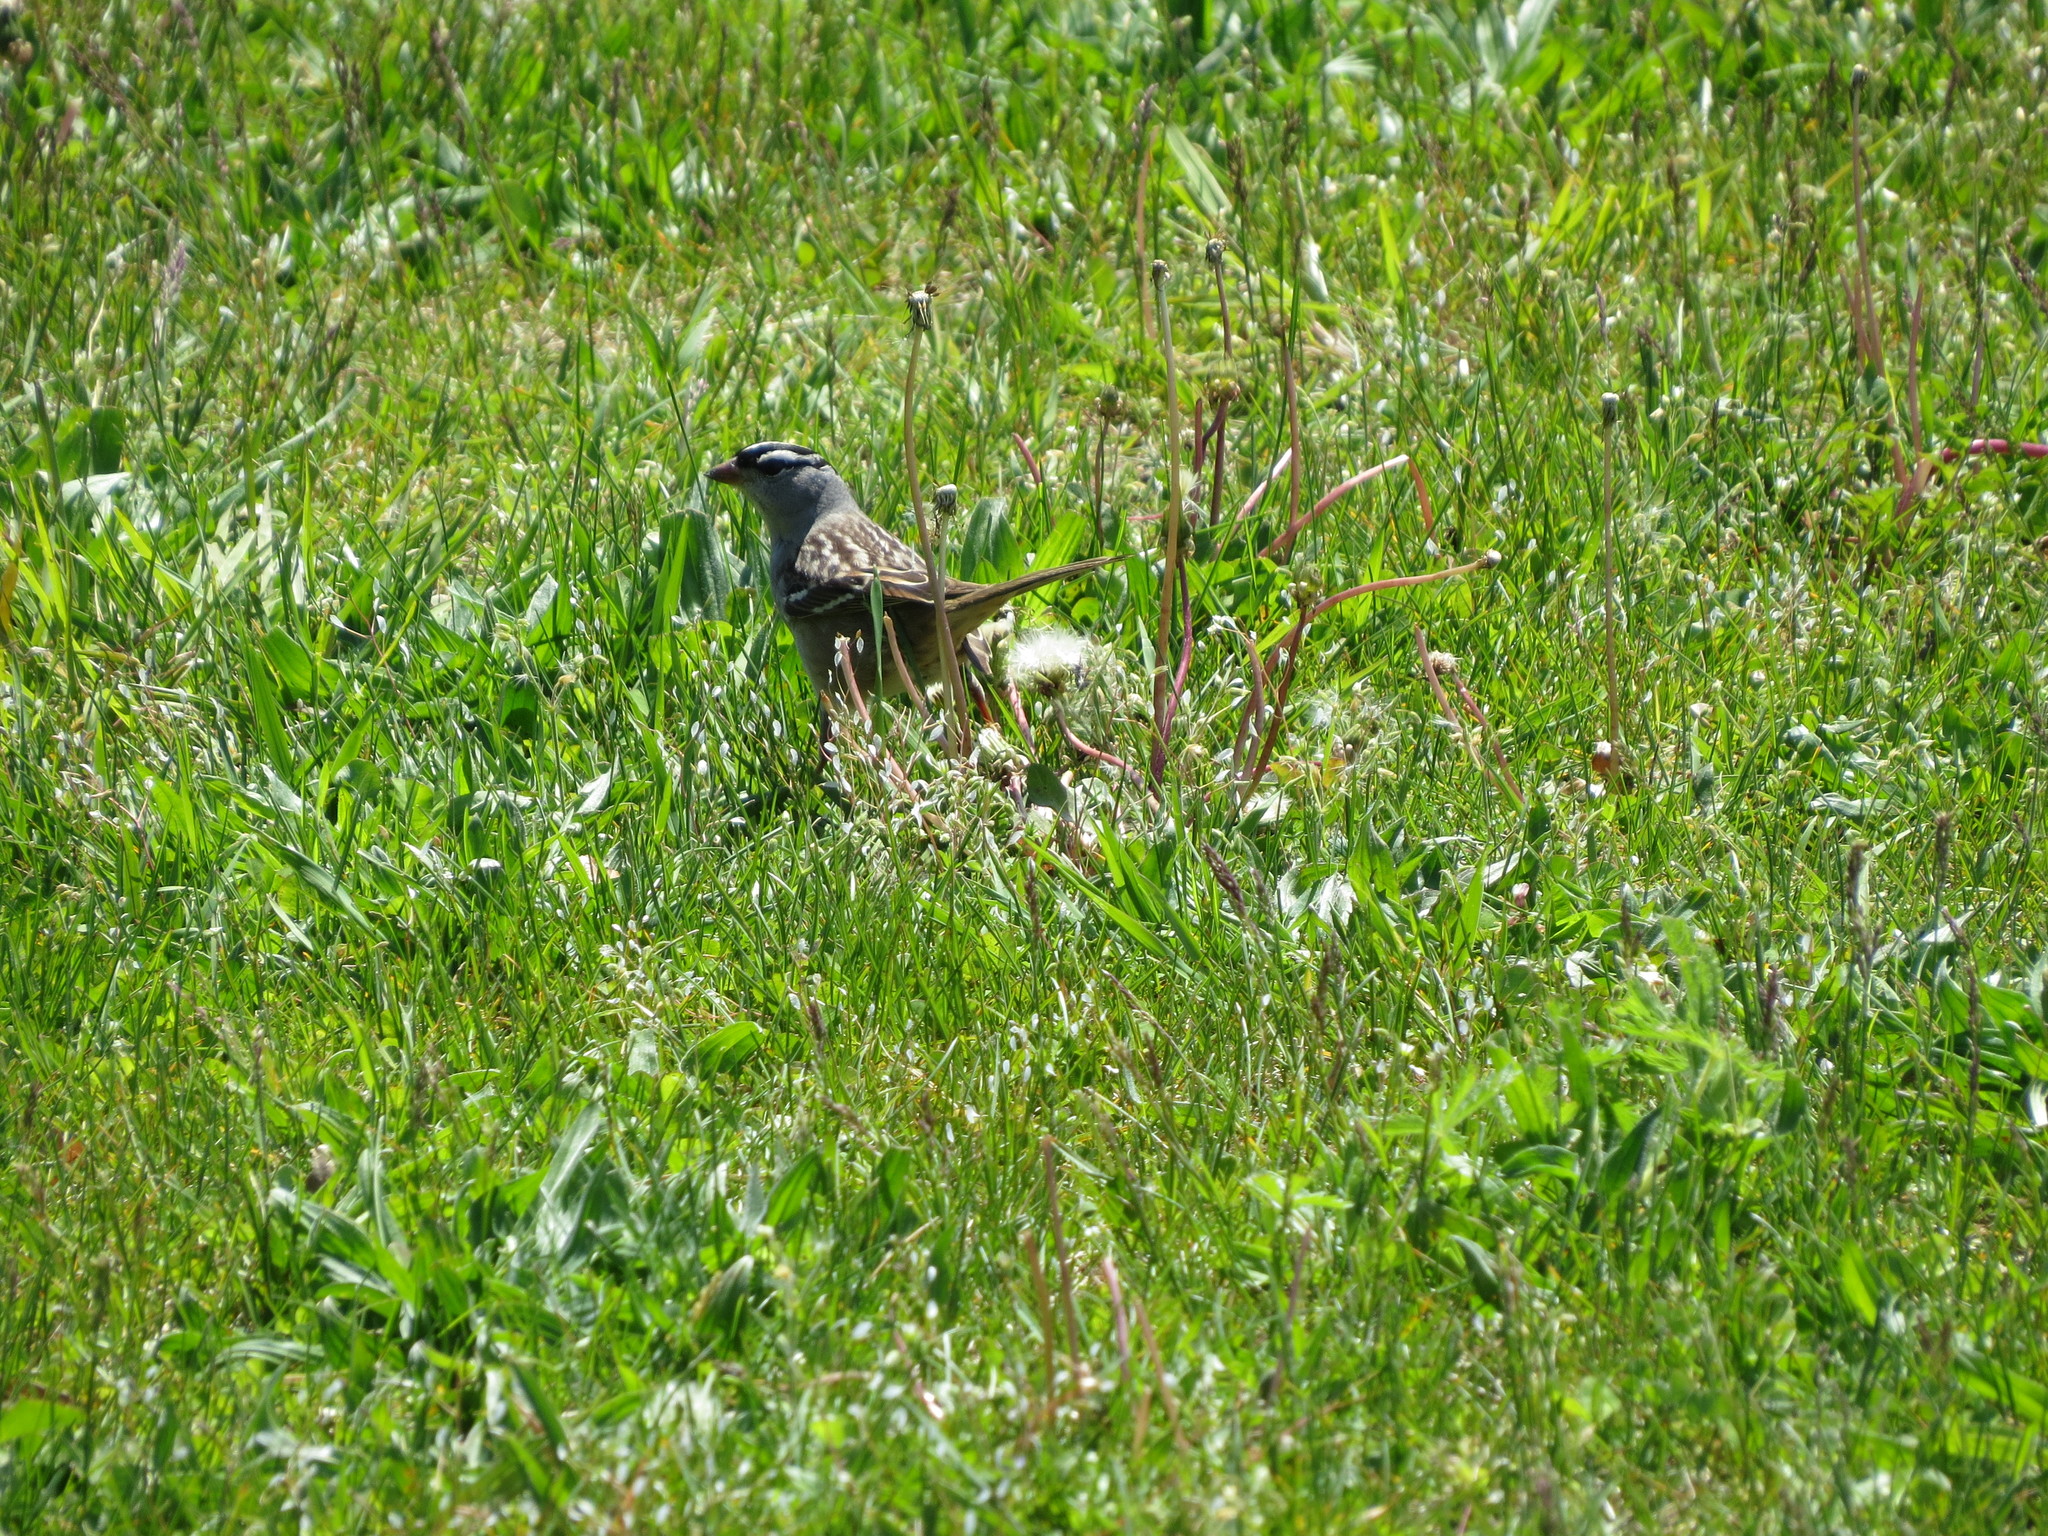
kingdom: Animalia
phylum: Chordata
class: Aves
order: Passeriformes
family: Passerellidae
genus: Zonotrichia
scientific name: Zonotrichia leucophrys
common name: White-crowned sparrow
